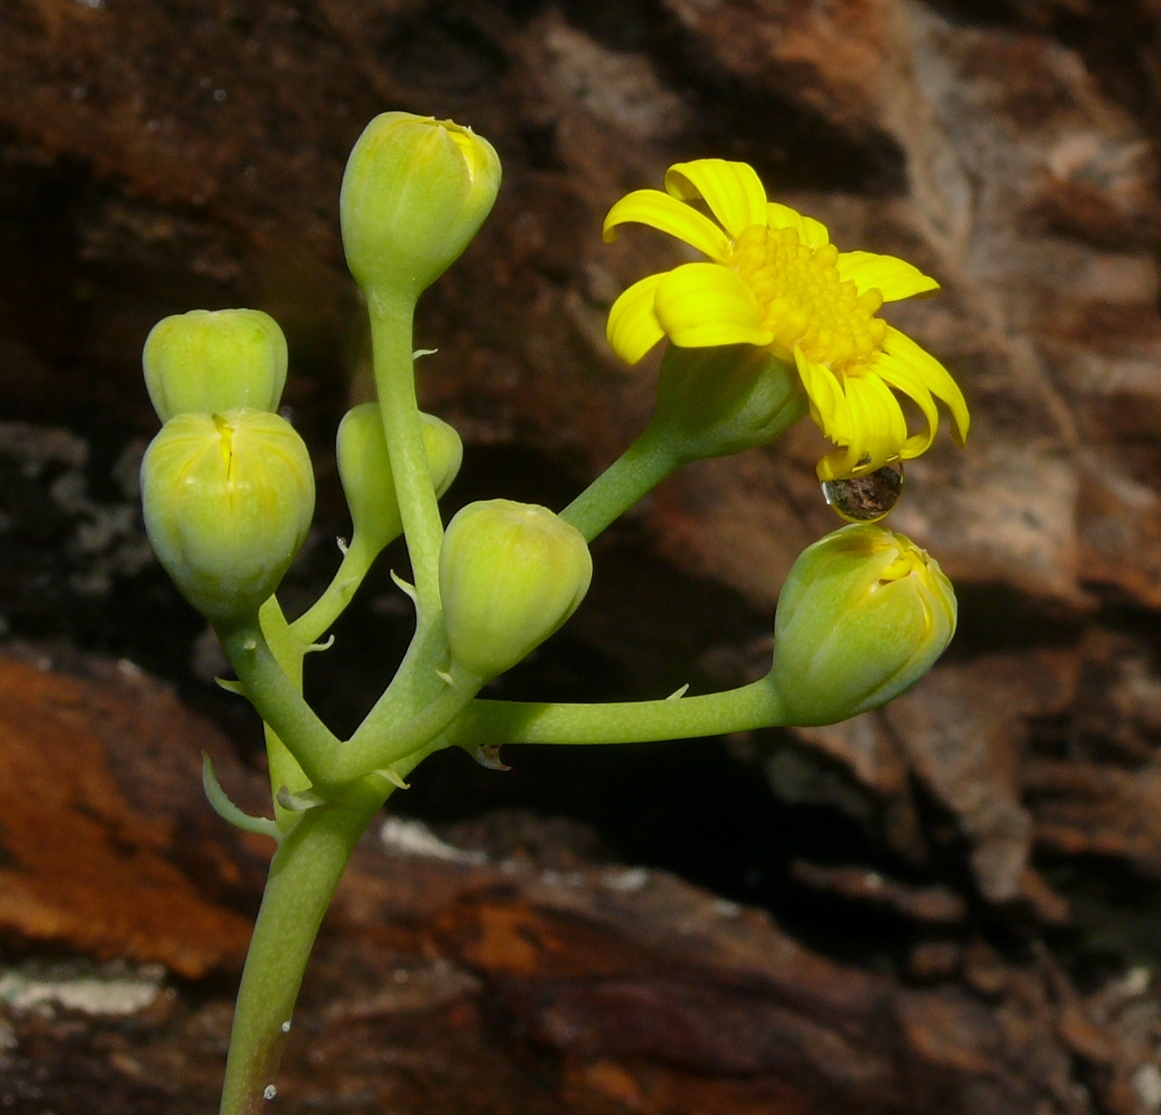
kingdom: Plantae
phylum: Tracheophyta
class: Magnoliopsida
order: Asterales
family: Asteraceae
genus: Othonna
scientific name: Othonna dentata
